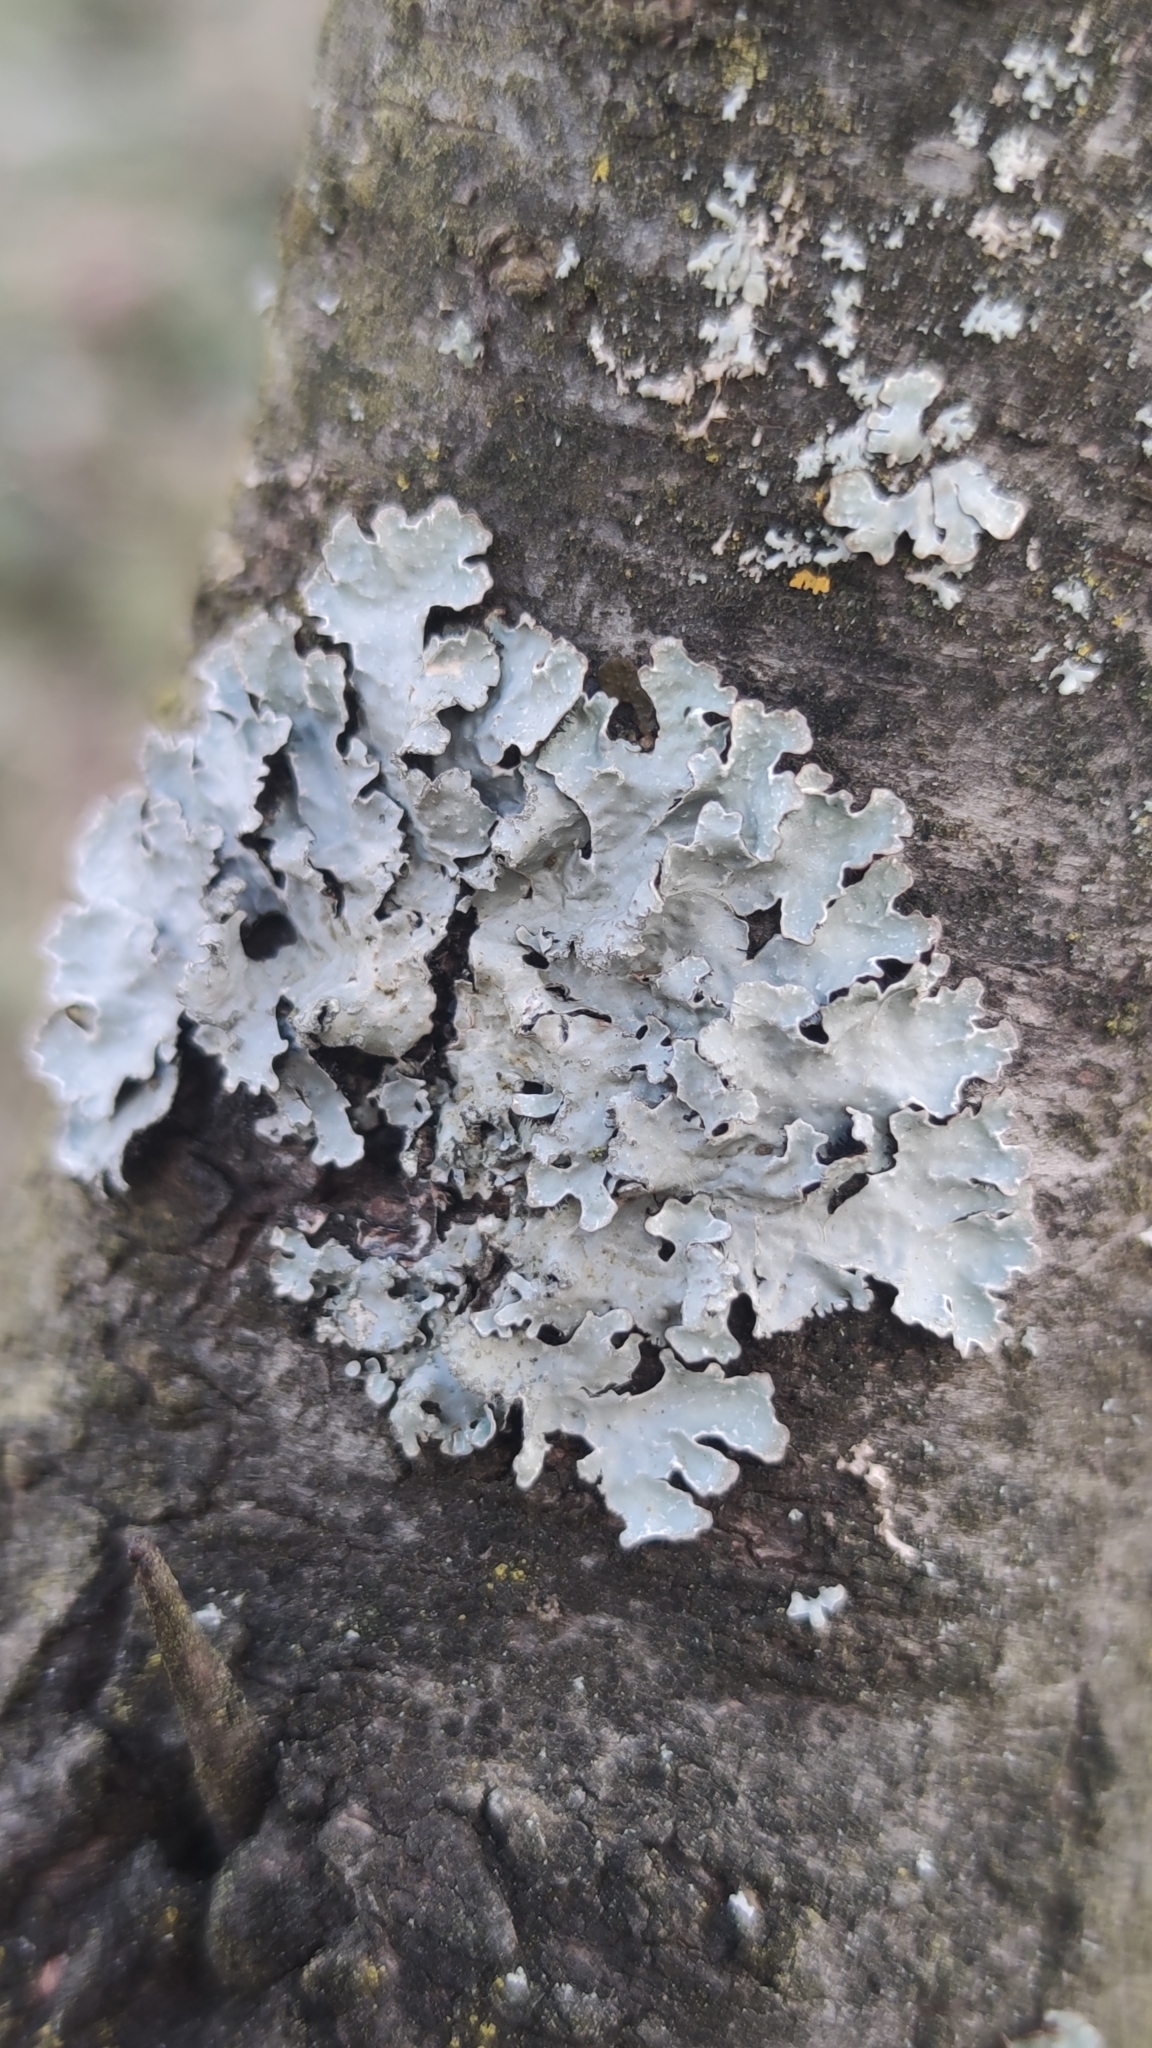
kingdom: Fungi
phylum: Ascomycota
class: Lecanoromycetes
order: Lecanorales
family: Parmeliaceae
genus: Parmelia
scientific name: Parmelia sulcata
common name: Netted shield lichen
